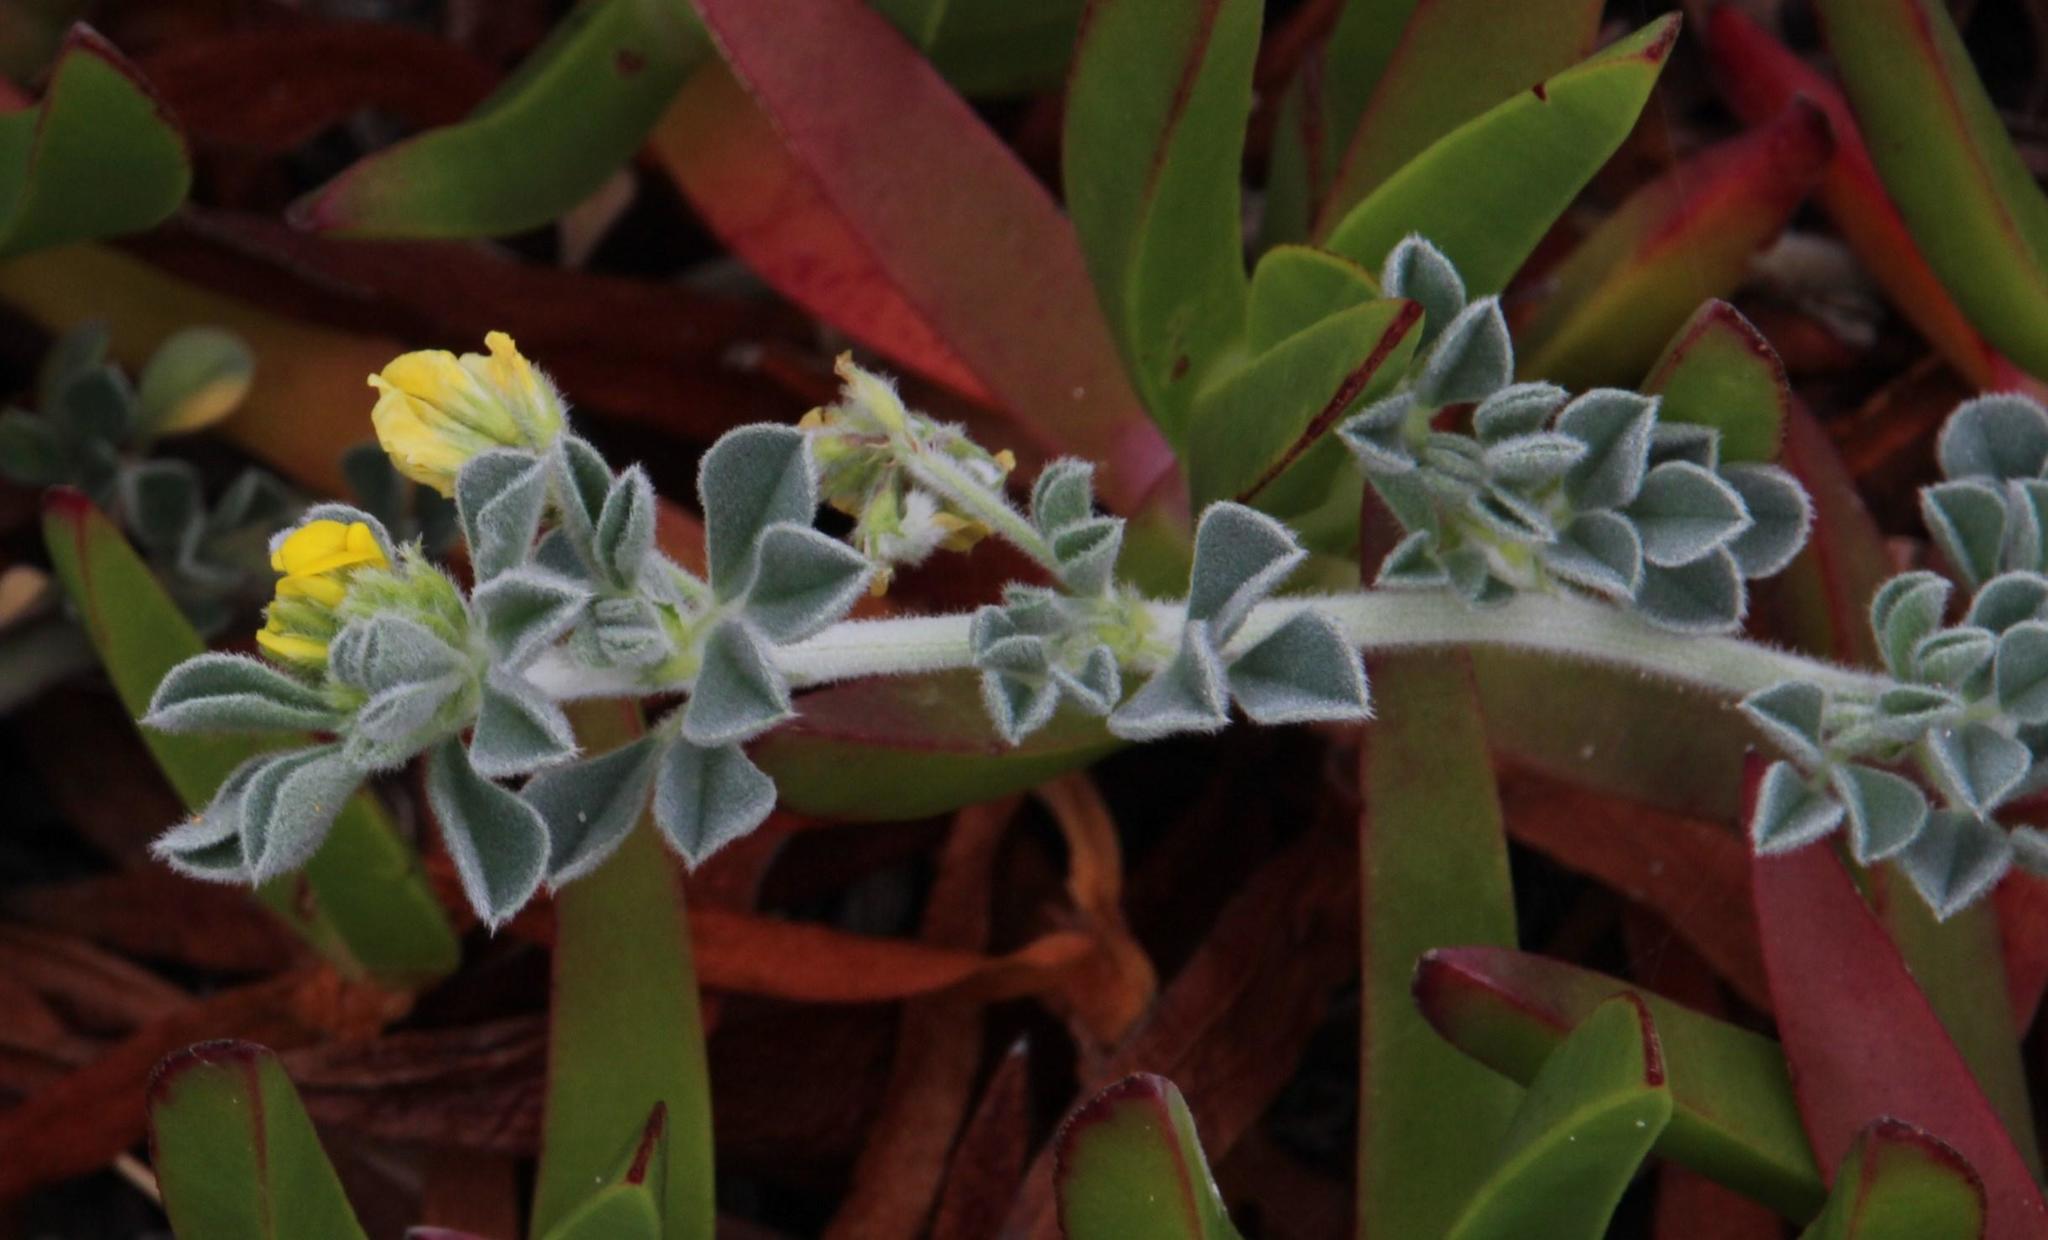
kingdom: Plantae
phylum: Tracheophyta
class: Magnoliopsida
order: Fabales
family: Fabaceae
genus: Lotus
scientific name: Lotus creticus
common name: Cretan bird's-foot trefoil
